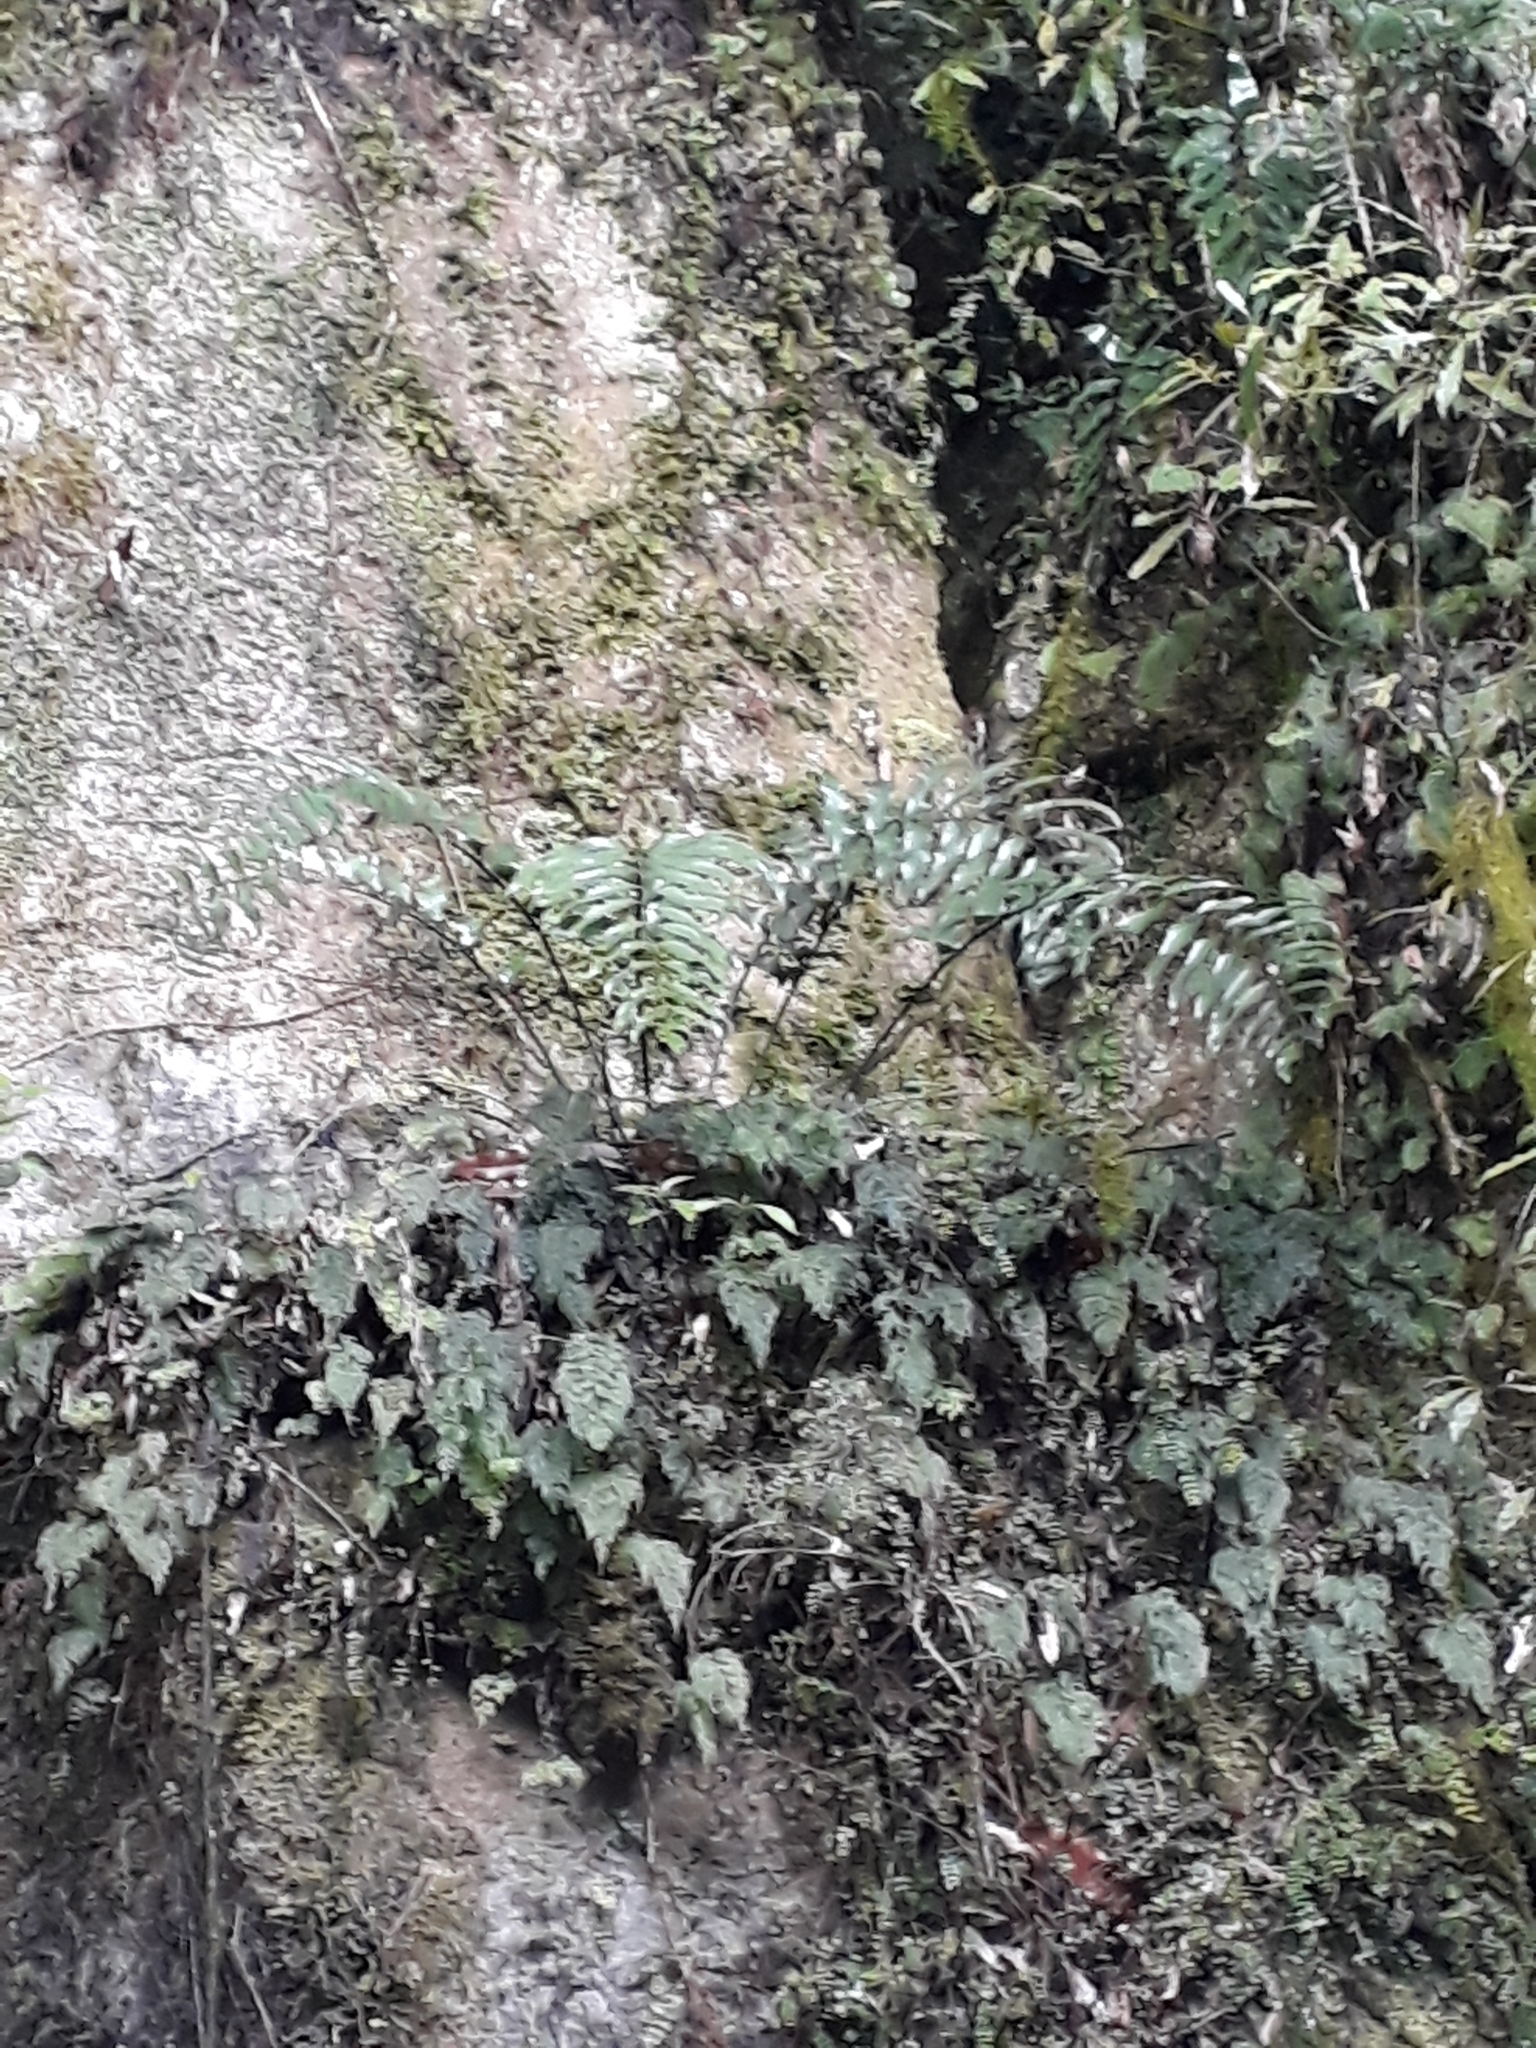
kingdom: Plantae
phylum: Tracheophyta
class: Polypodiopsida
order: Polypodiales
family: Aspleniaceae
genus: Asplenium
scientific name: Asplenium oblongifolium
